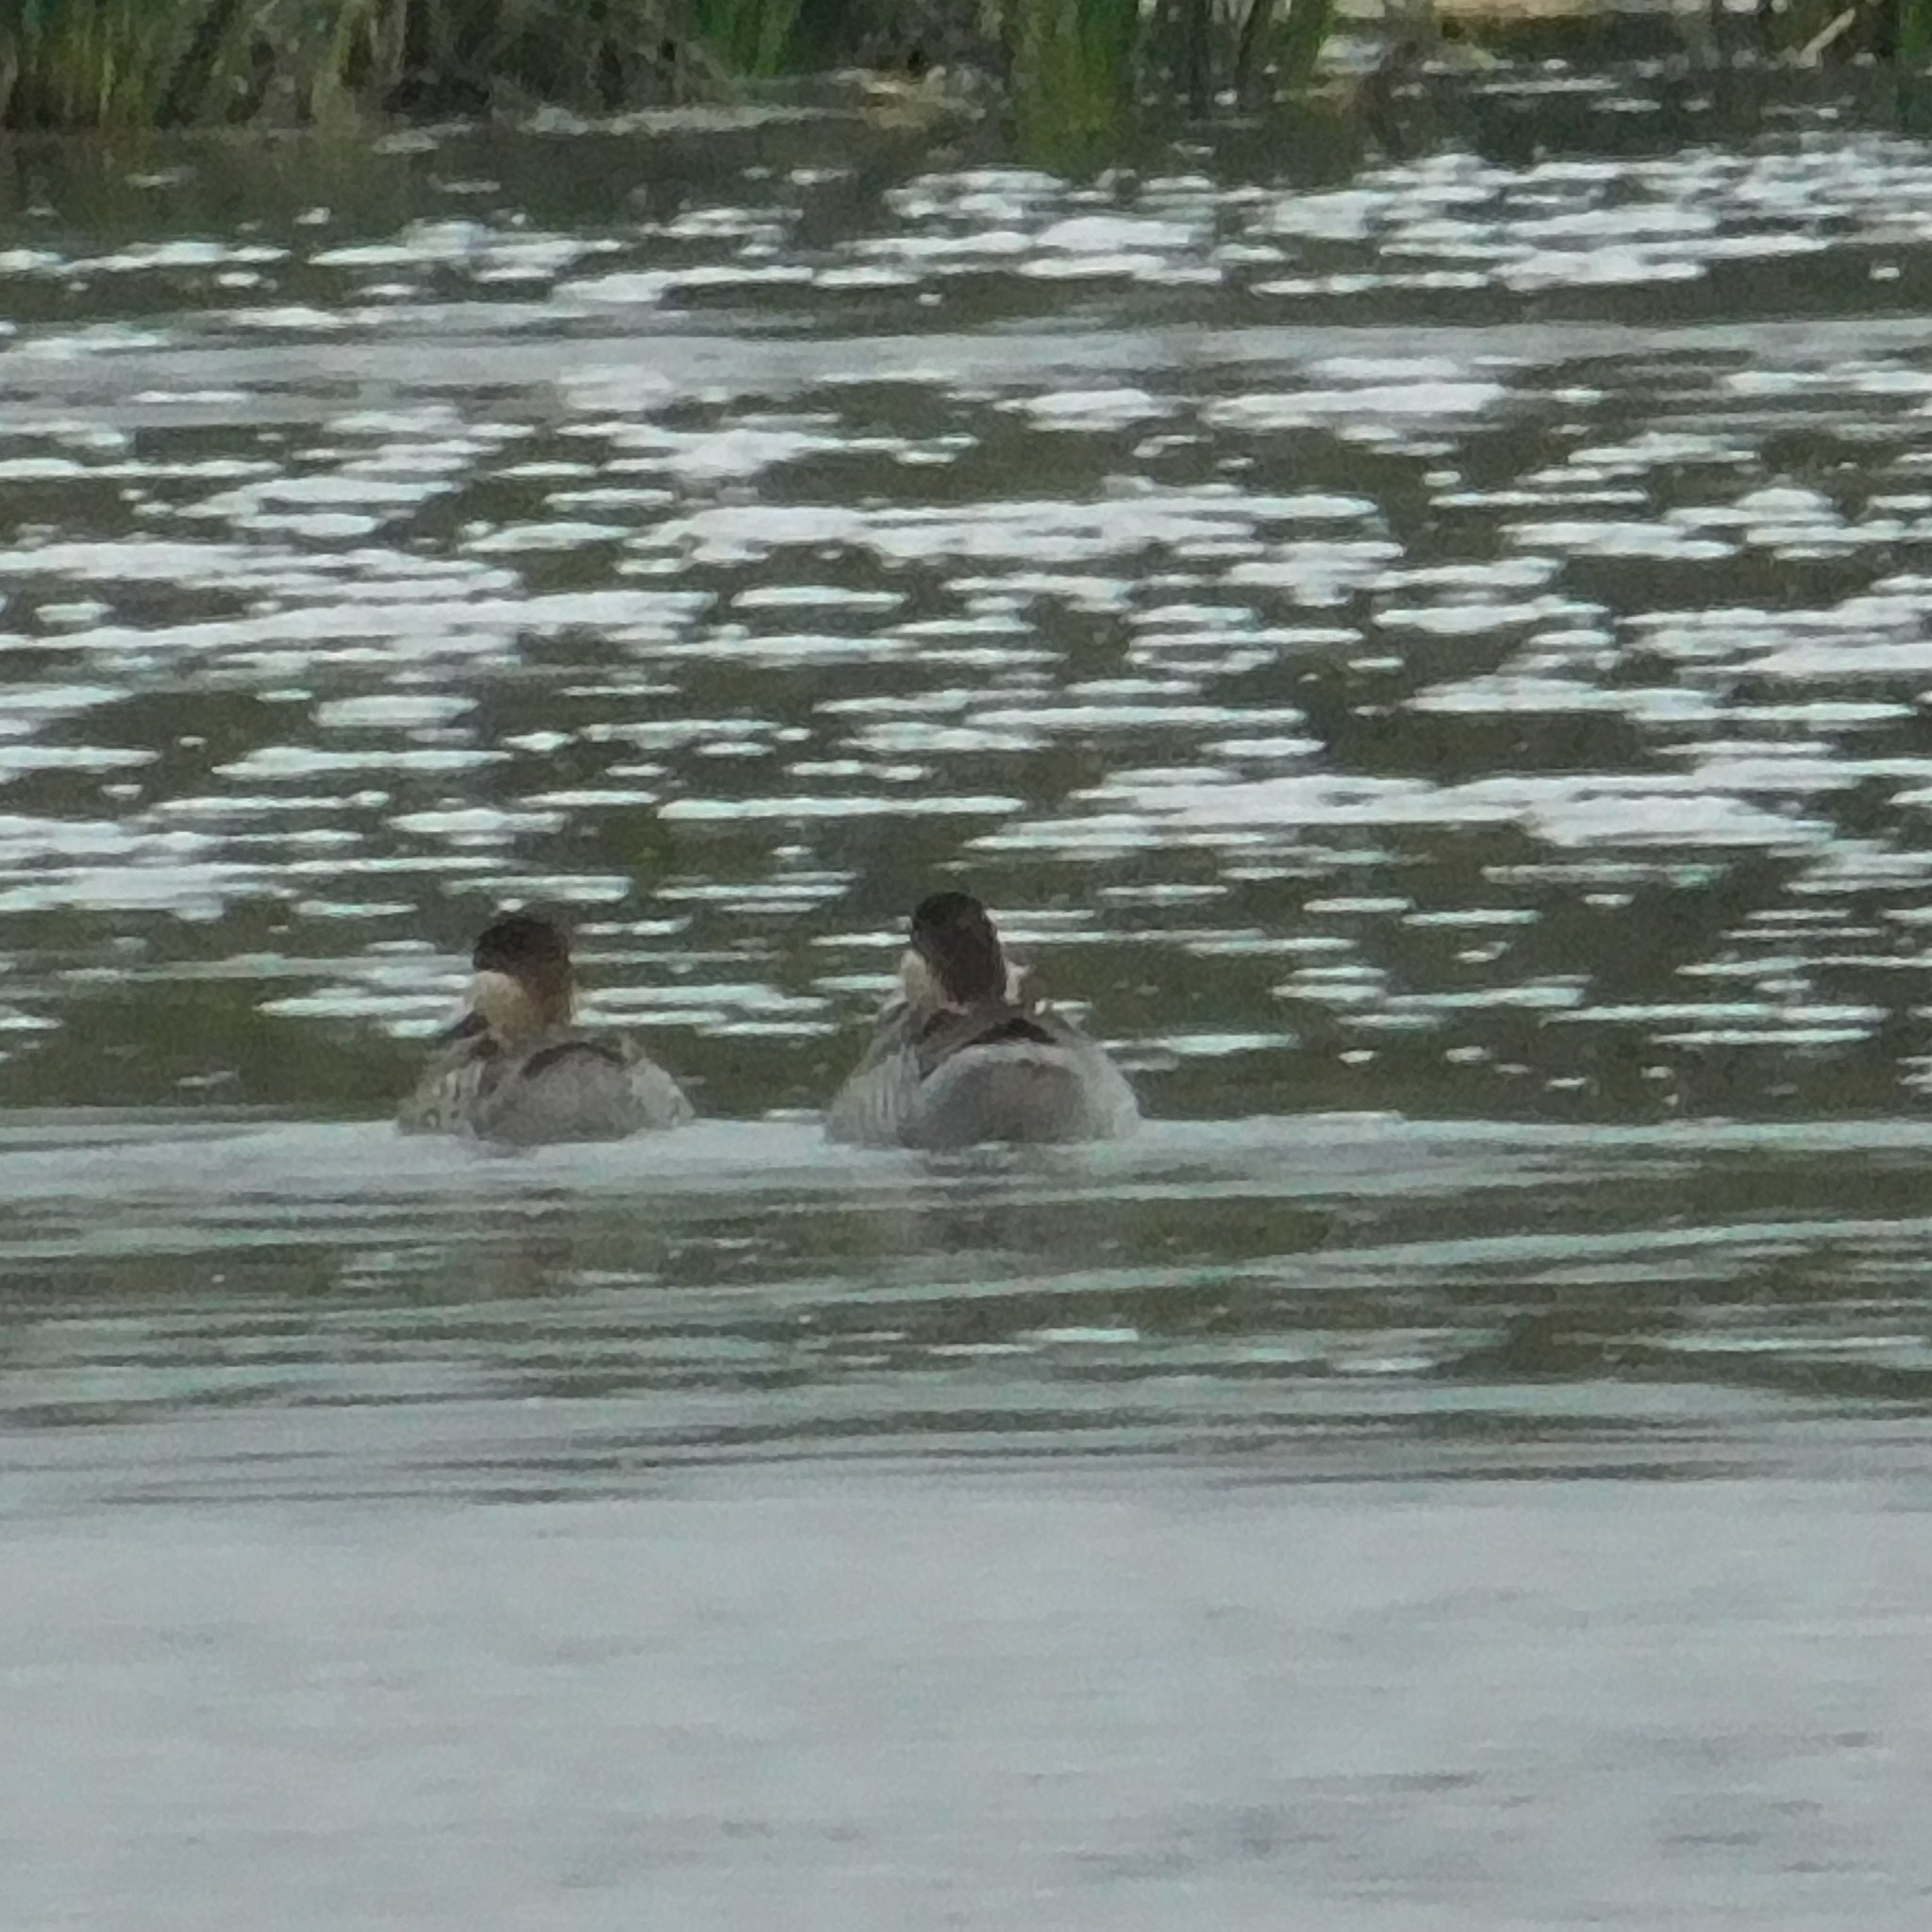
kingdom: Animalia
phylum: Chordata
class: Aves
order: Anseriformes
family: Anatidae
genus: Spatula
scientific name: Spatula versicolor
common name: Silver teal
